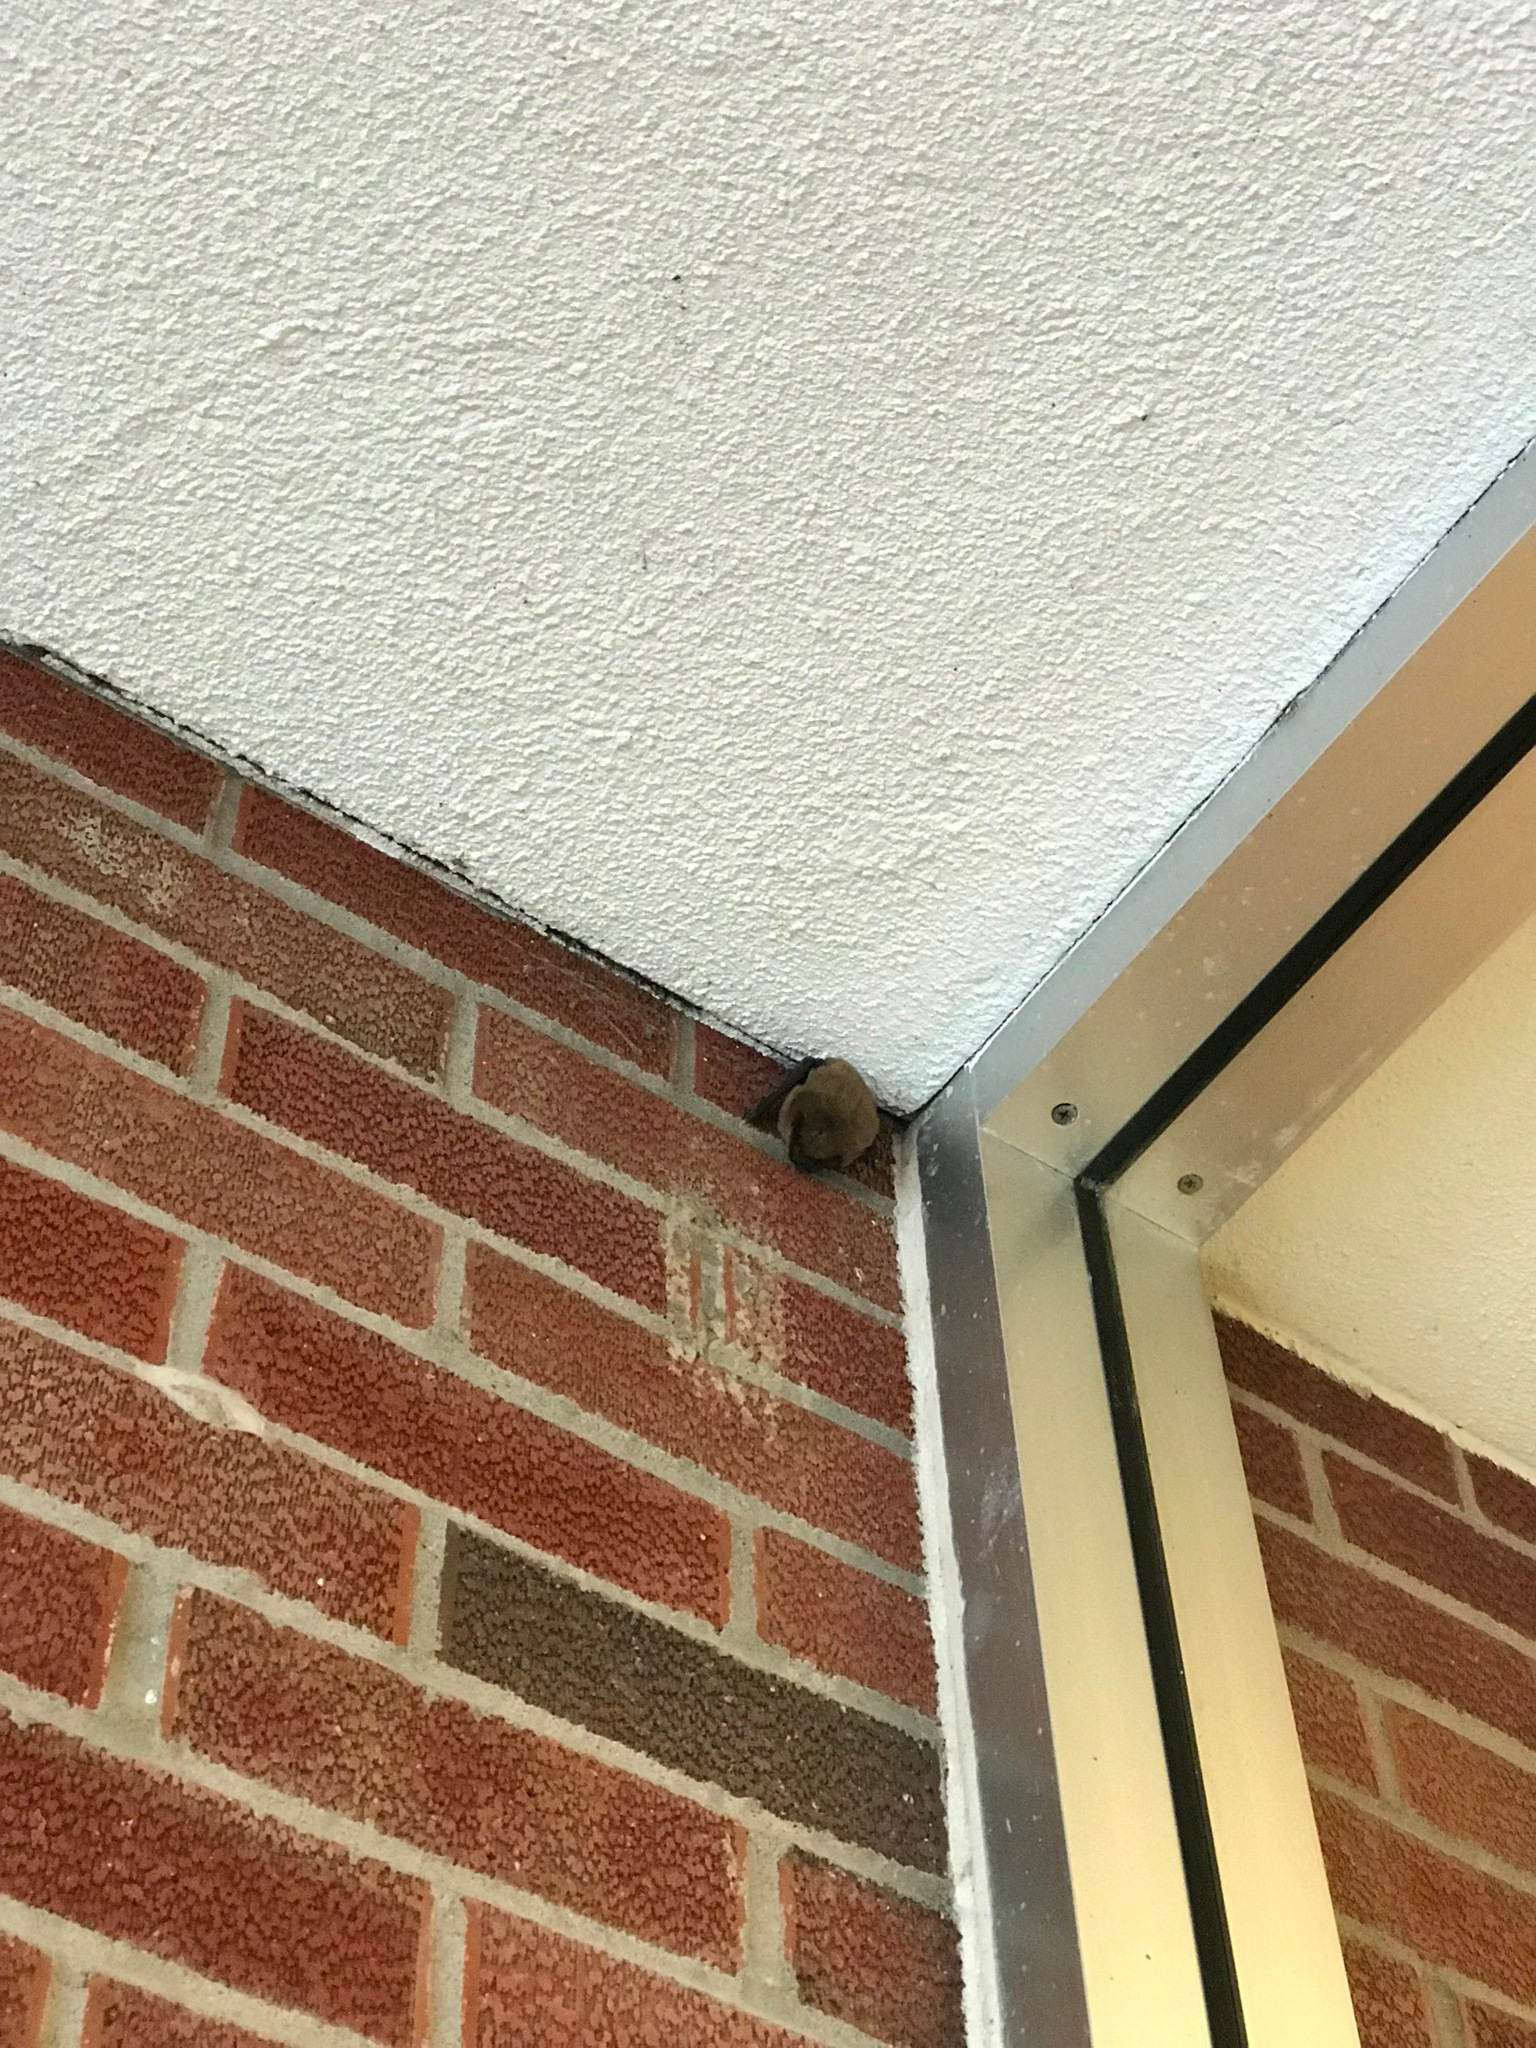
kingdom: Animalia
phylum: Chordata
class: Mammalia
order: Chiroptera
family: Vespertilionidae
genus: Eptesicus
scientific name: Eptesicus fuscus
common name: Big brown bat
